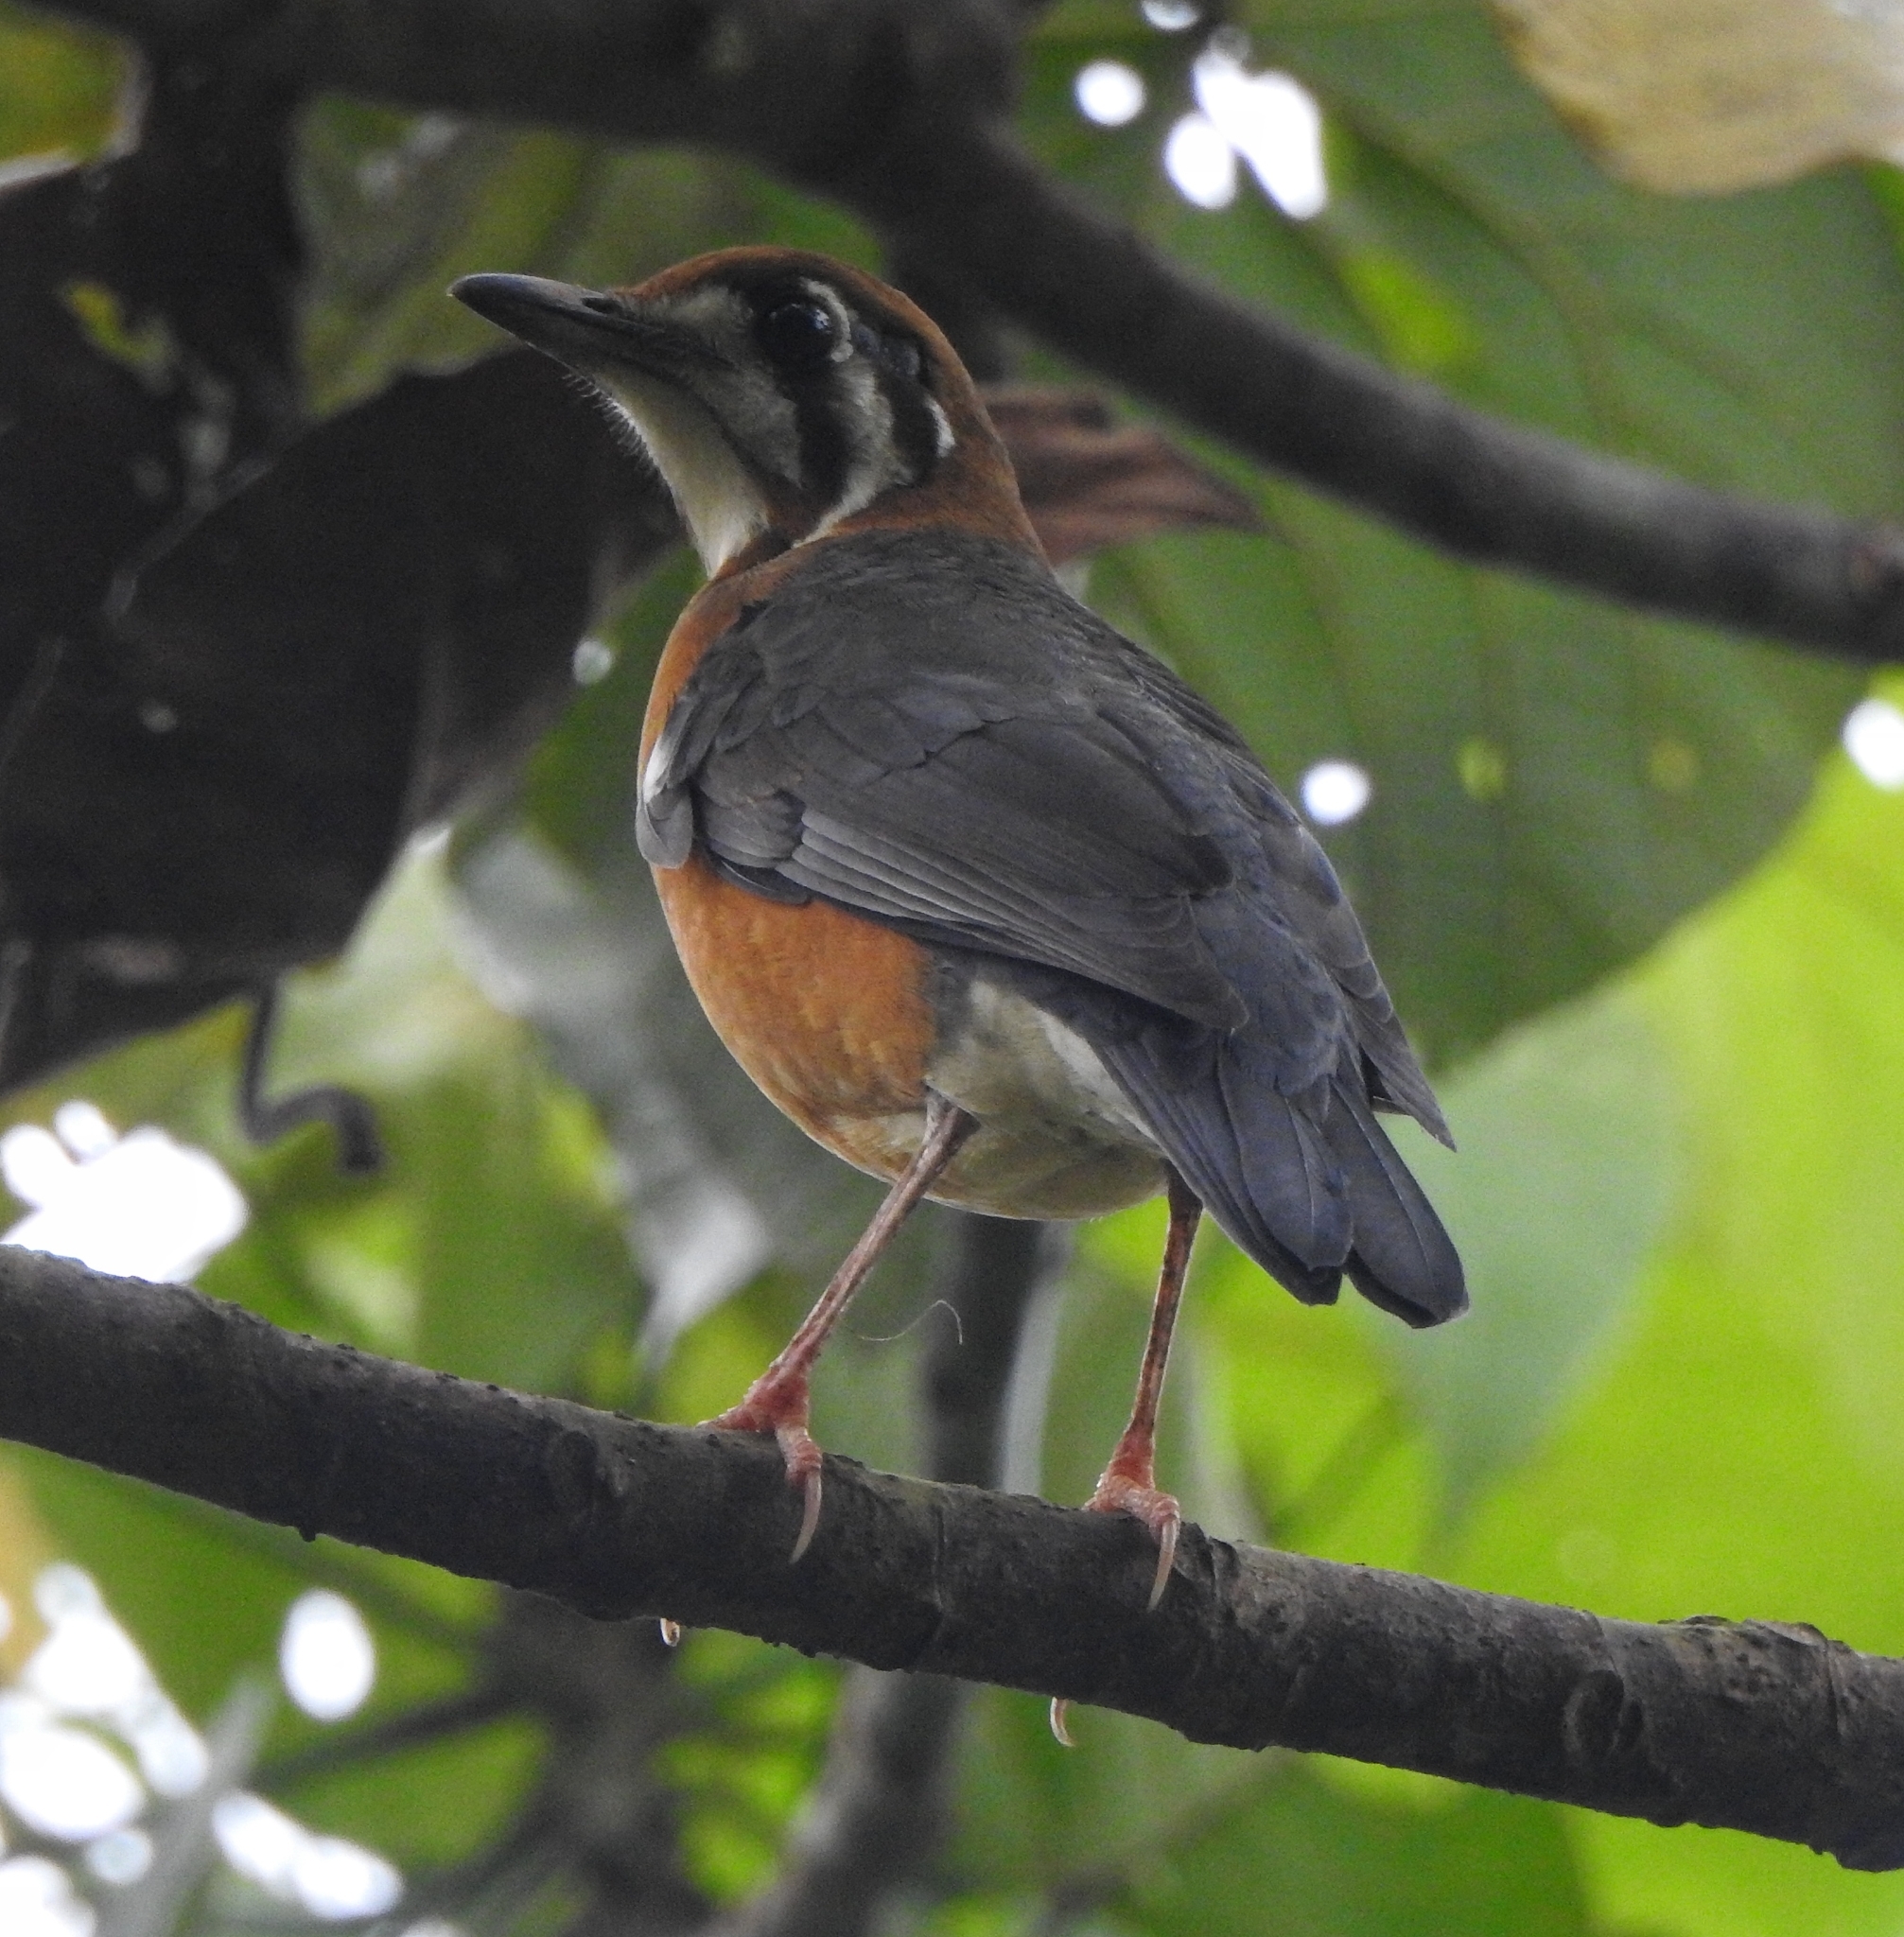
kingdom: Animalia
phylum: Chordata
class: Aves
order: Passeriformes
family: Turdidae
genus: Geokichla
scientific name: Geokichla citrina
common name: Orange-headed thrush
